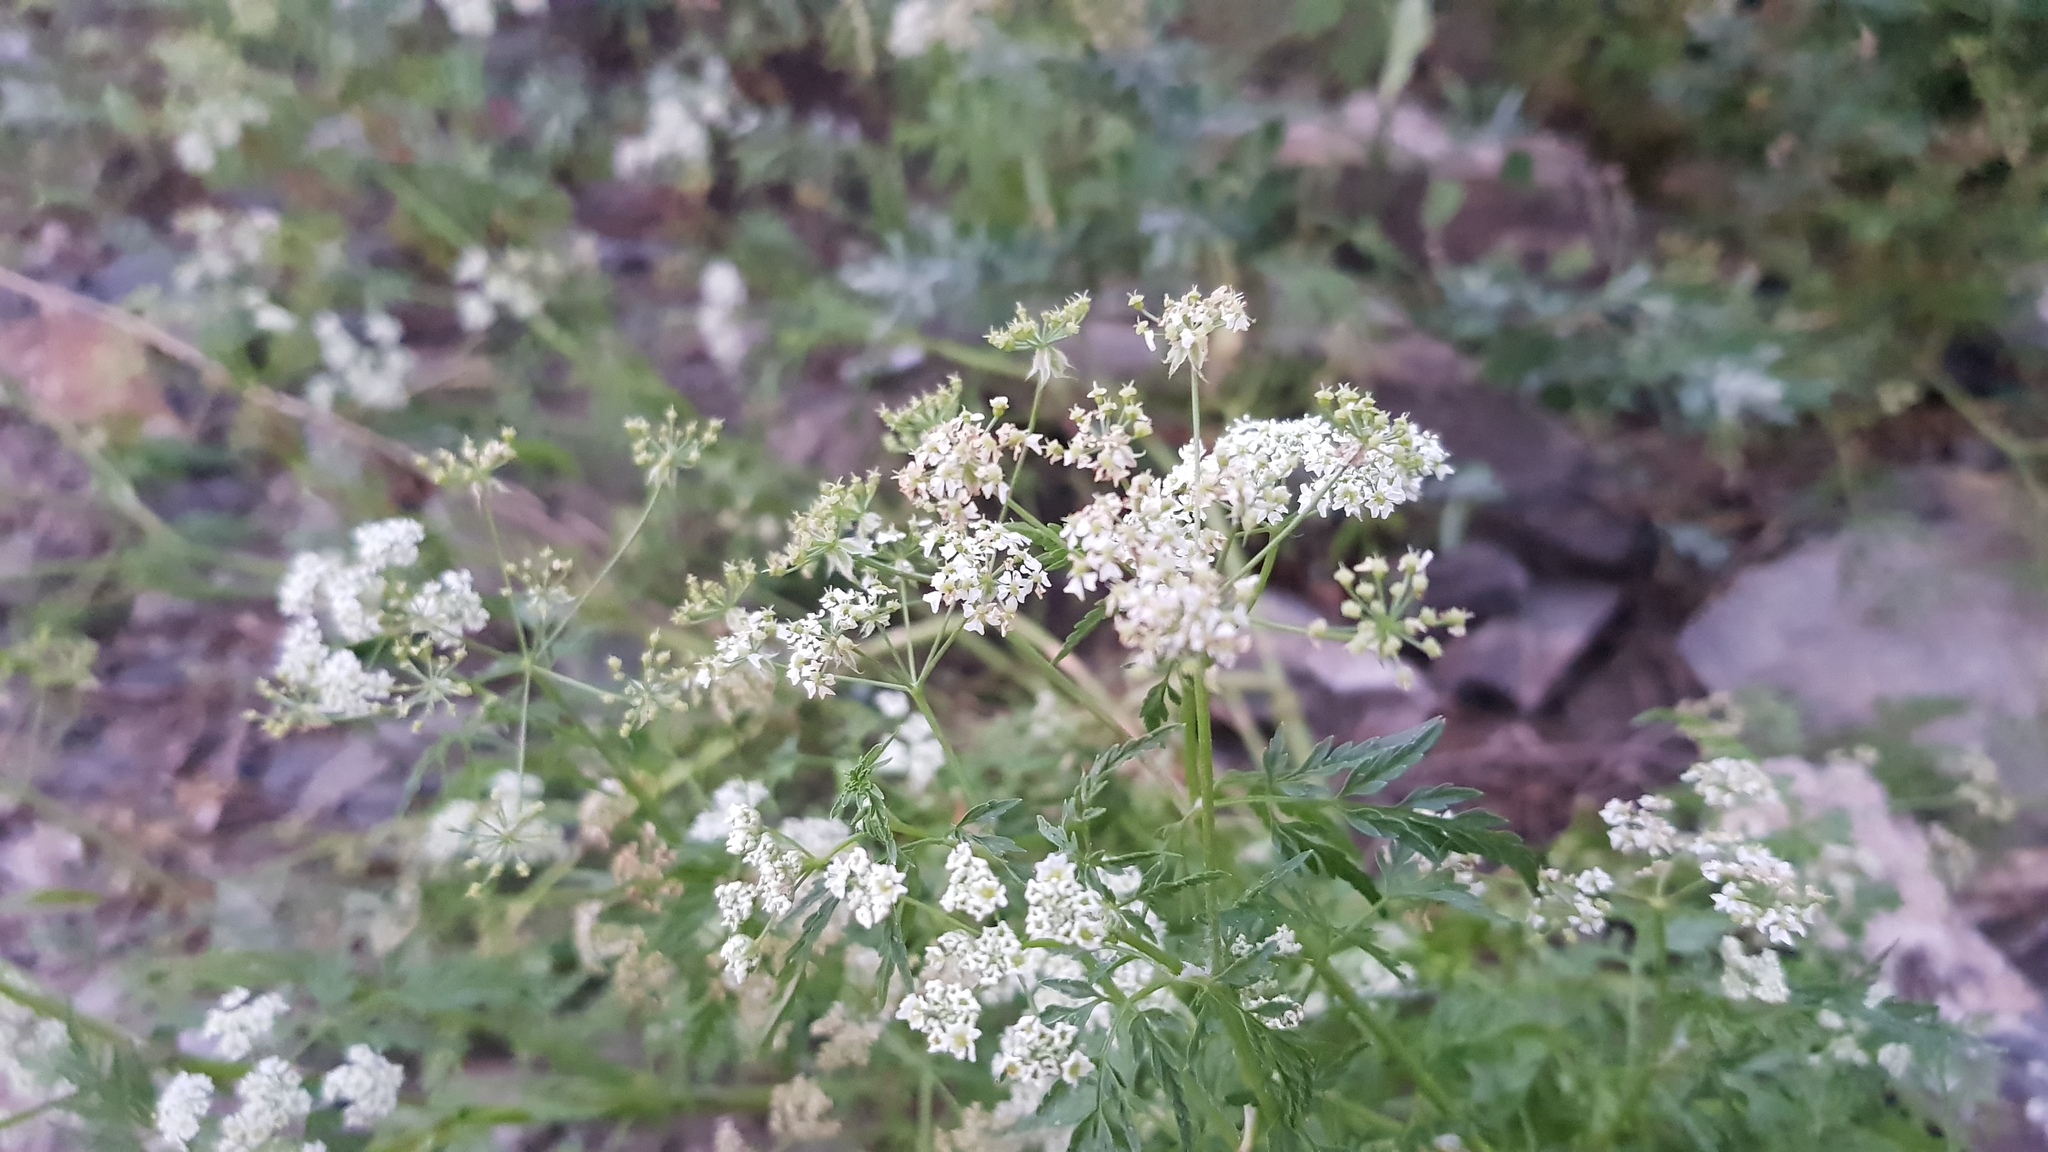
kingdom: Plantae
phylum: Tracheophyta
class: Magnoliopsida
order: Apiales
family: Apiaceae
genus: Sphallerocarpus
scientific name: Sphallerocarpus gracilis
